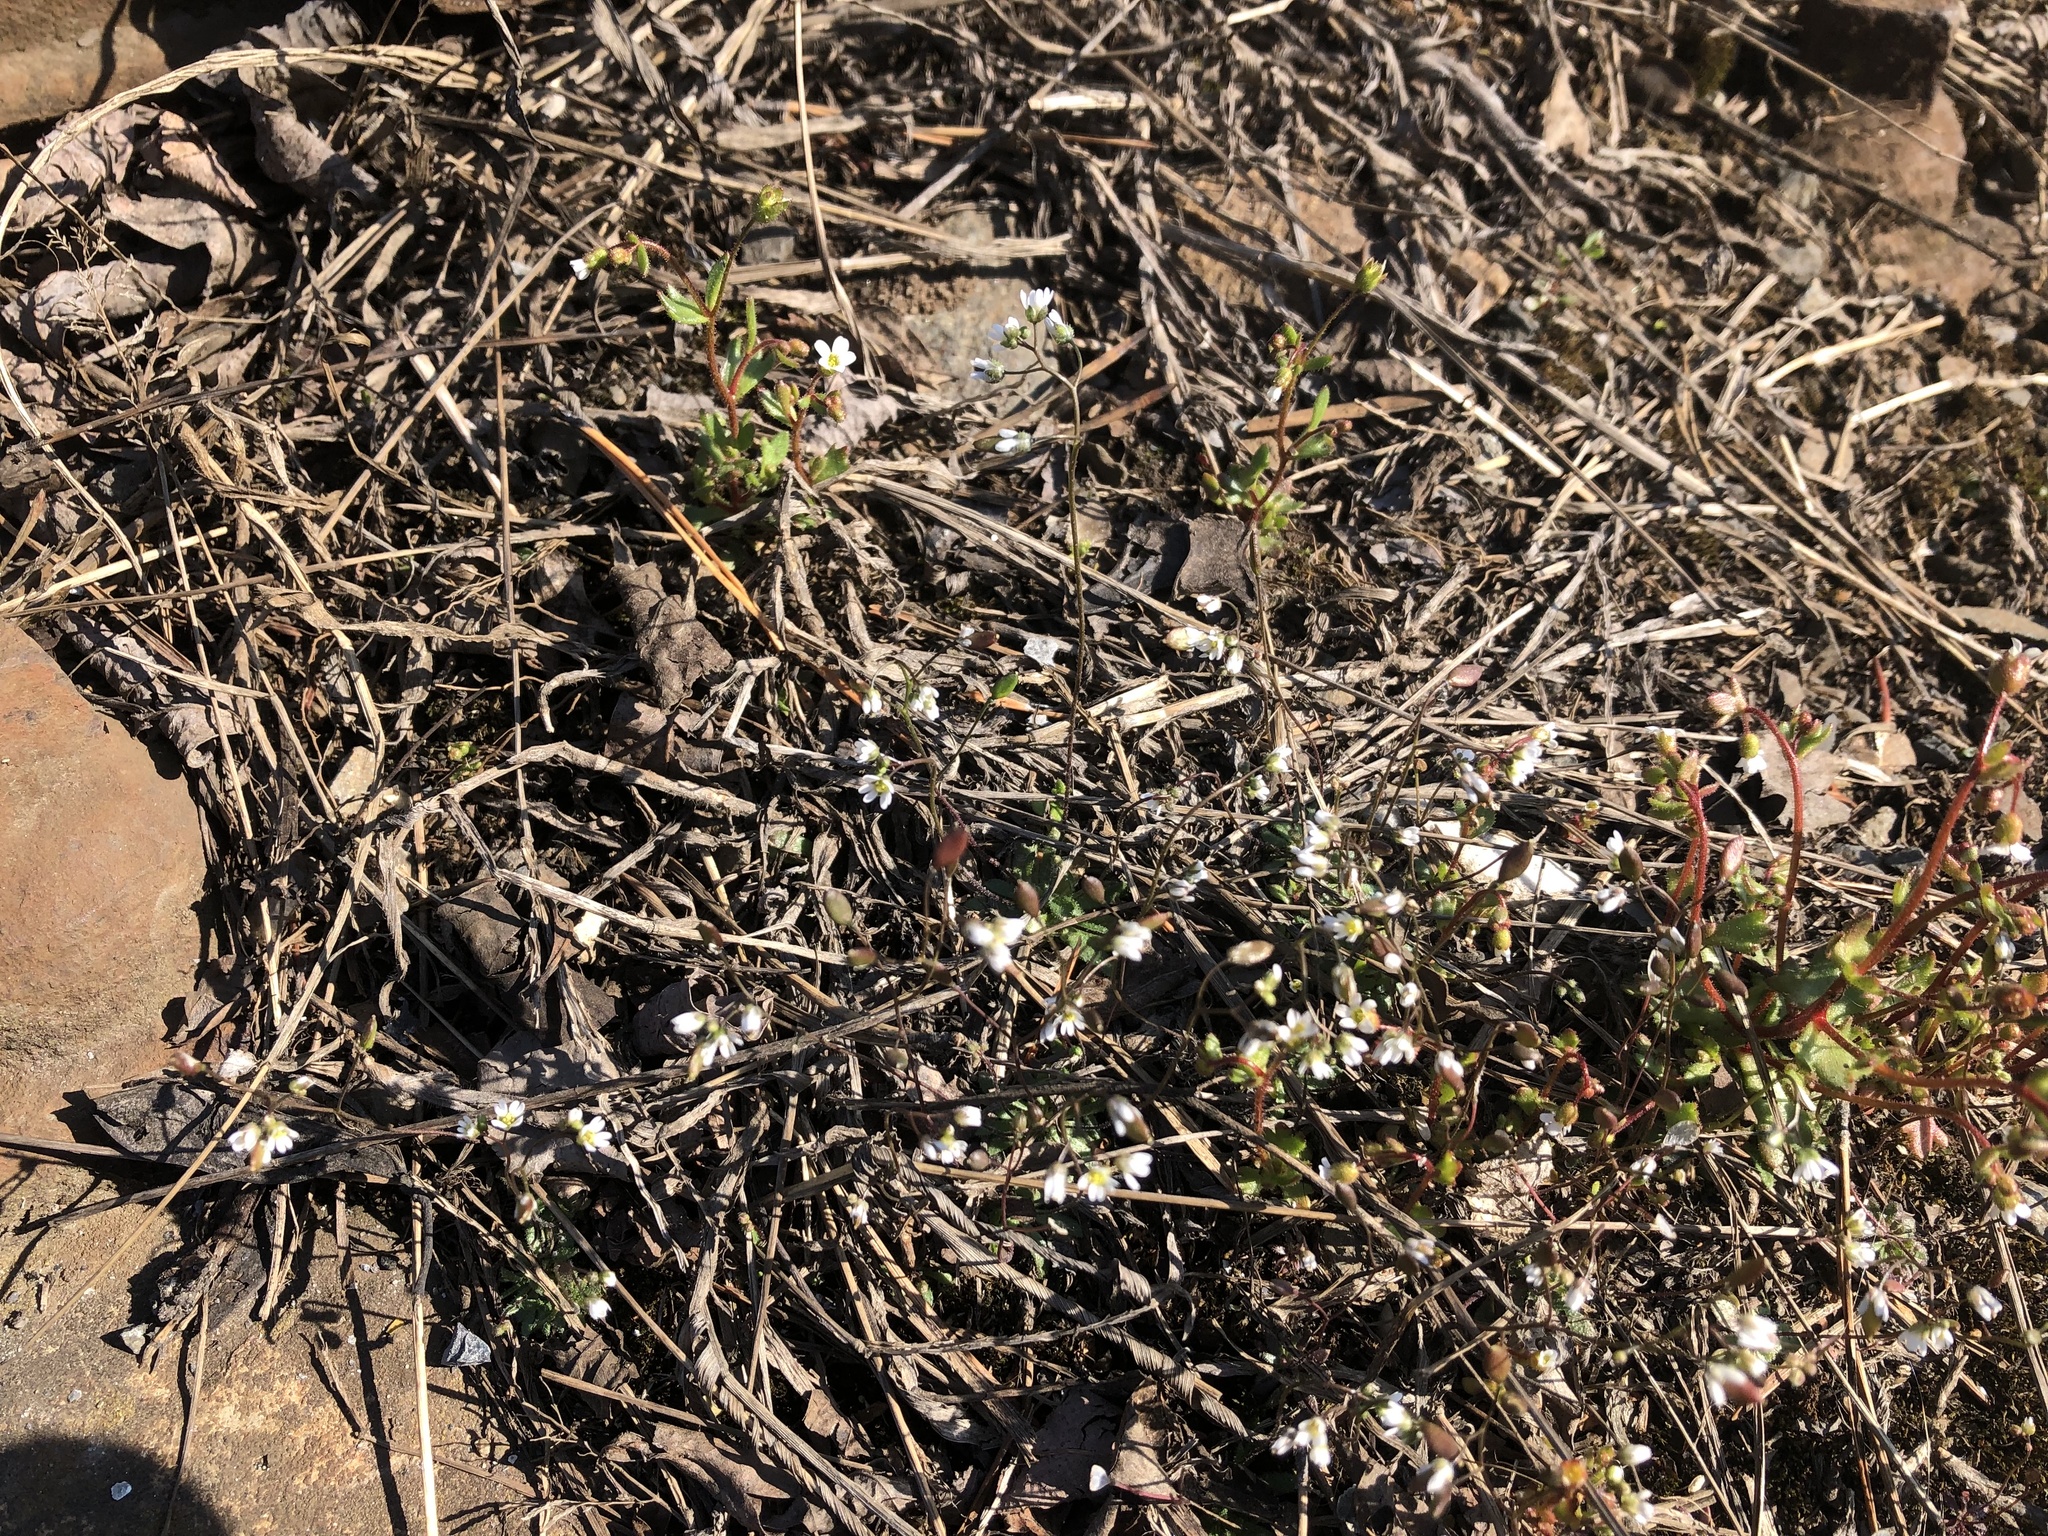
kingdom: Plantae
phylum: Tracheophyta
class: Magnoliopsida
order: Brassicales
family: Brassicaceae
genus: Draba
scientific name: Draba verna
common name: Spring draba
